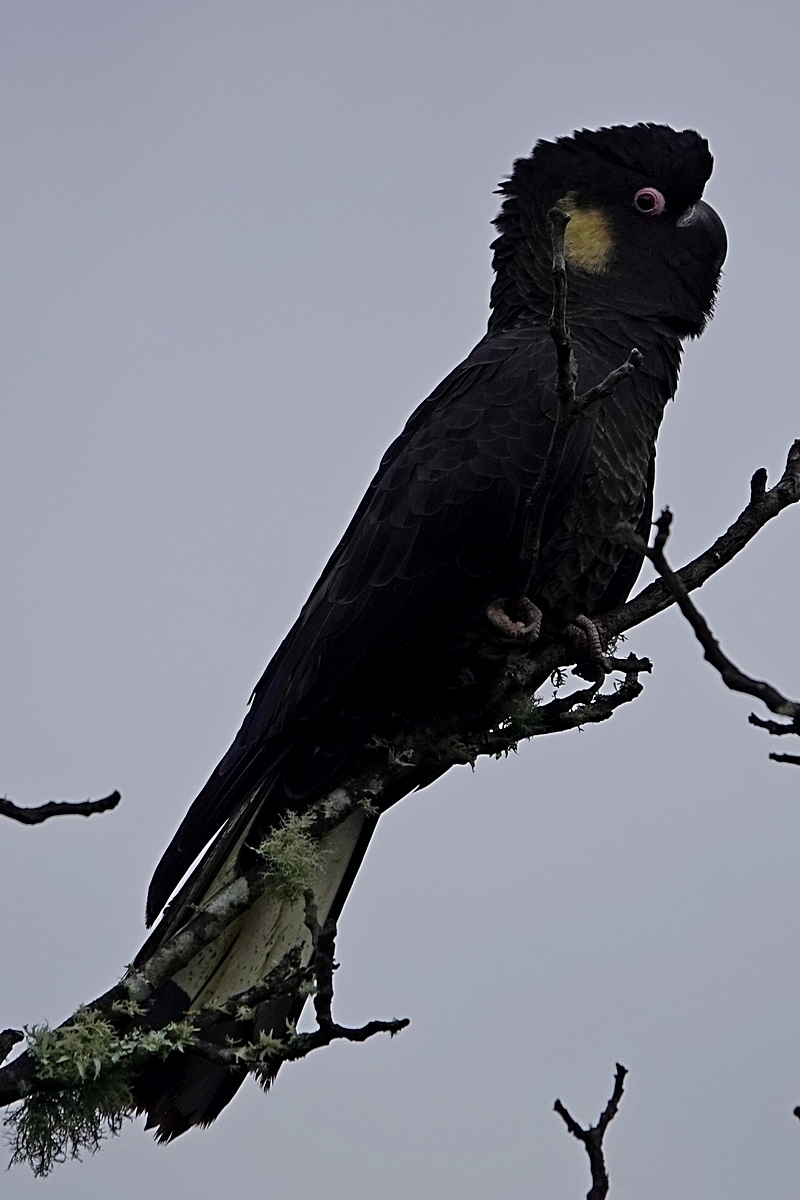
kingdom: Animalia
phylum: Chordata
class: Aves
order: Psittaciformes
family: Cacatuidae
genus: Zanda
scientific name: Zanda funerea
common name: Yellow-tailed black-cockatoo
